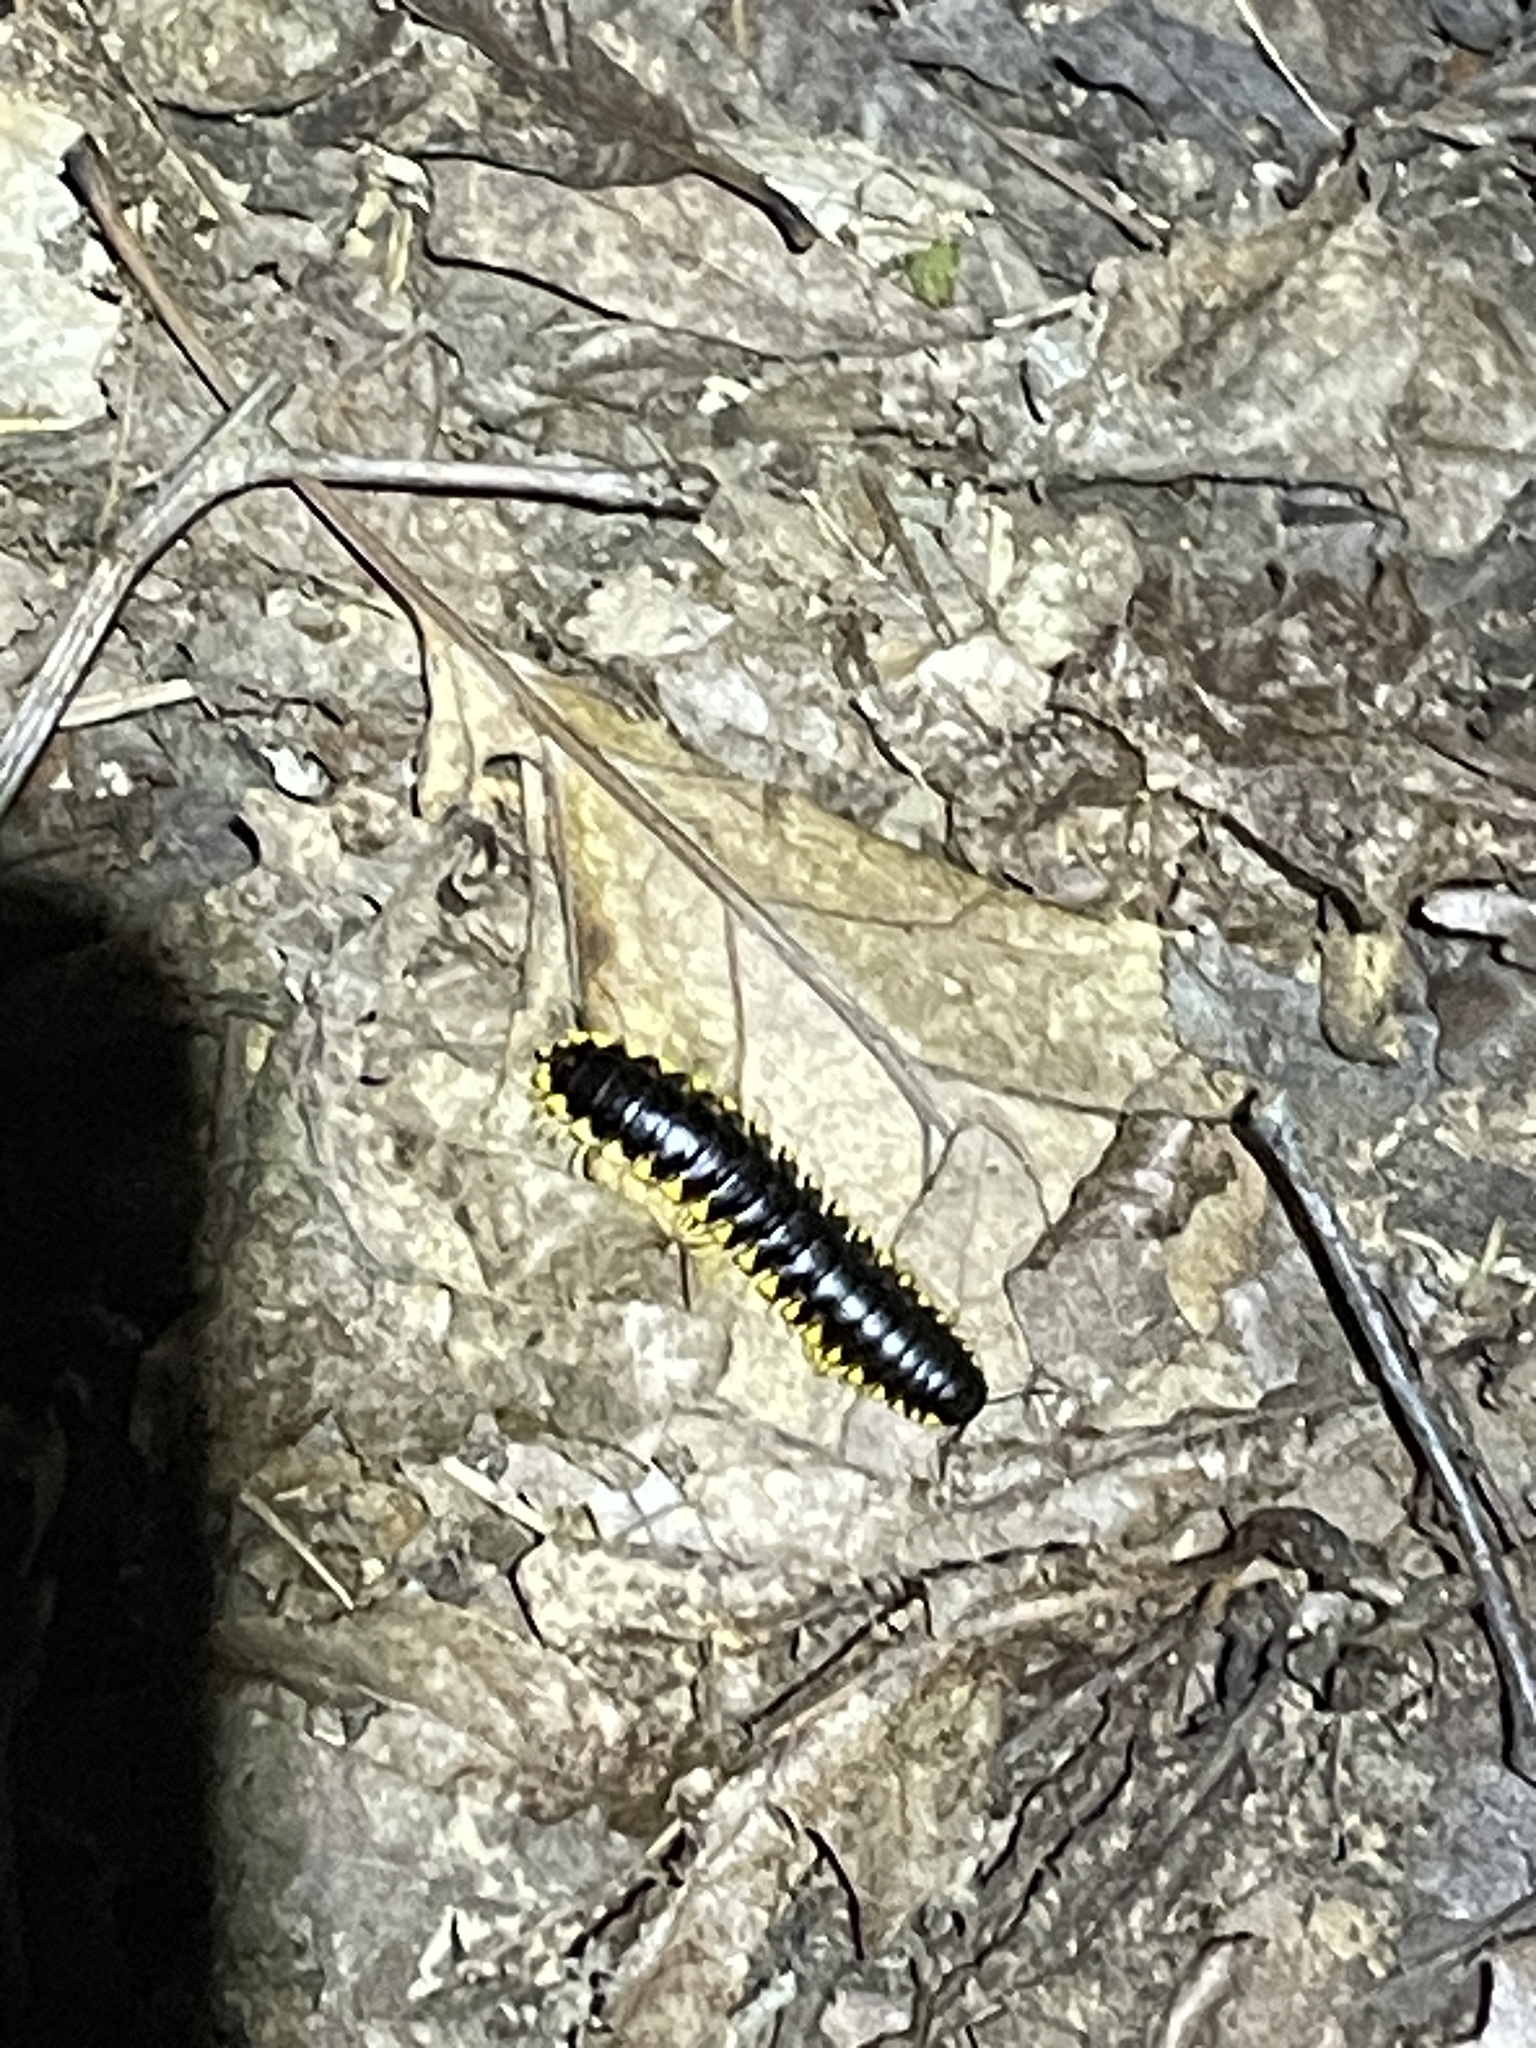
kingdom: Animalia
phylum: Arthropoda
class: Diplopoda
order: Polydesmida
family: Xystodesmidae
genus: Apheloria
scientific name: Apheloria tigana
